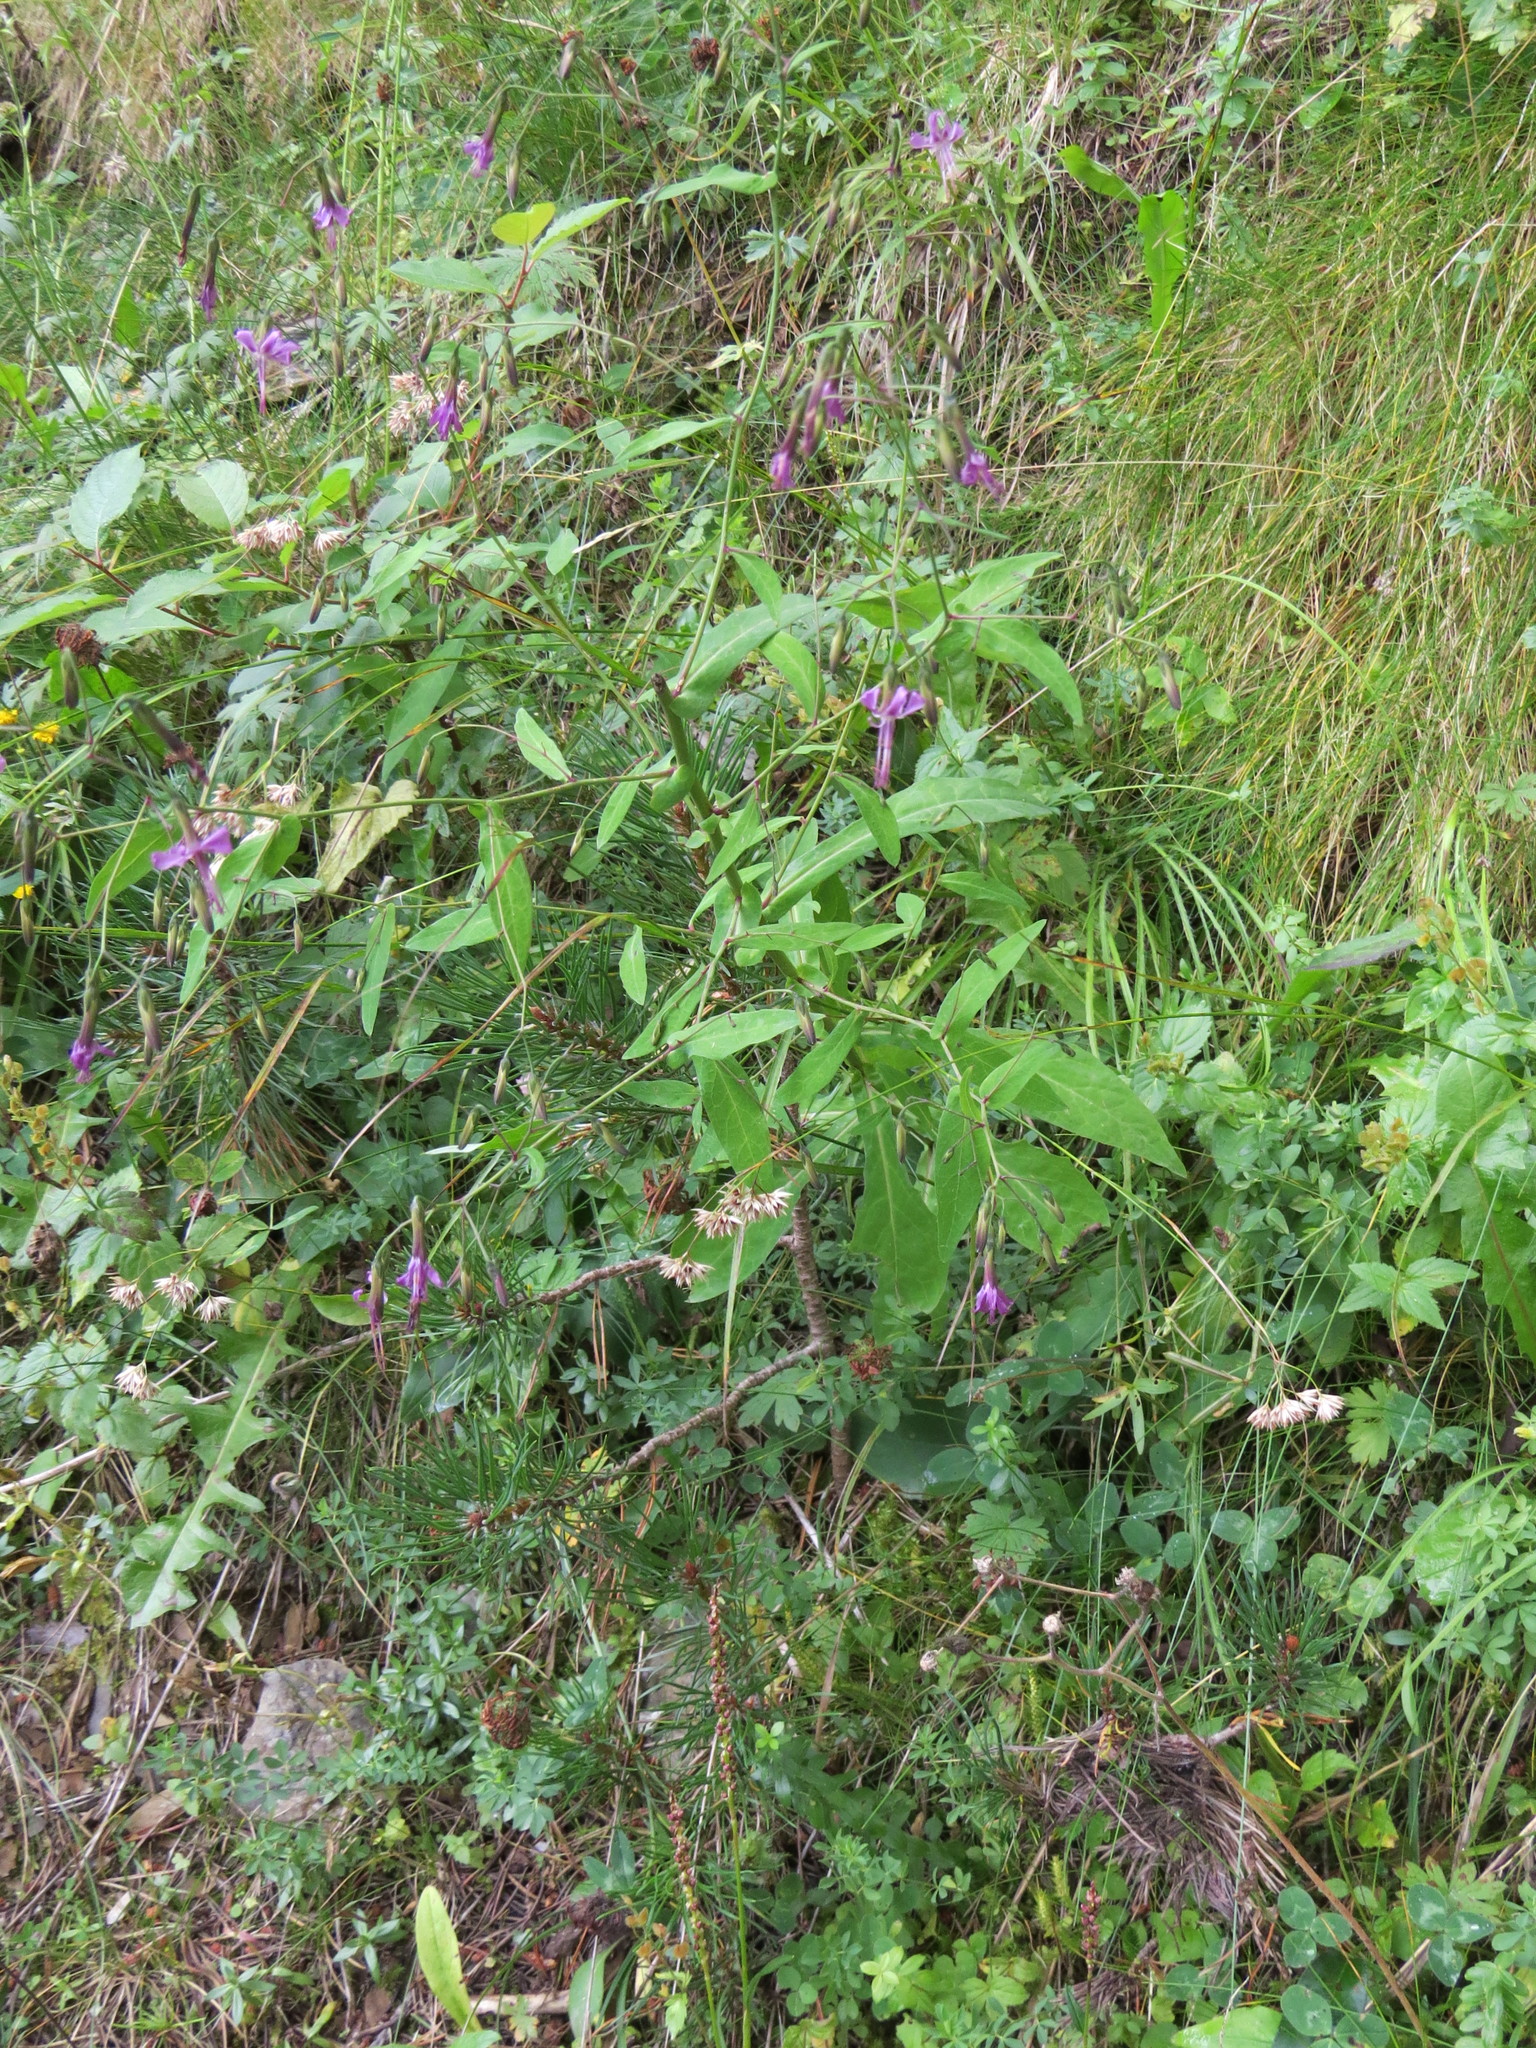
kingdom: Plantae
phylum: Tracheophyta
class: Magnoliopsida
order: Asterales
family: Asteraceae
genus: Prenanthes
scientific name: Prenanthes purpurea
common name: Purple lettuce
